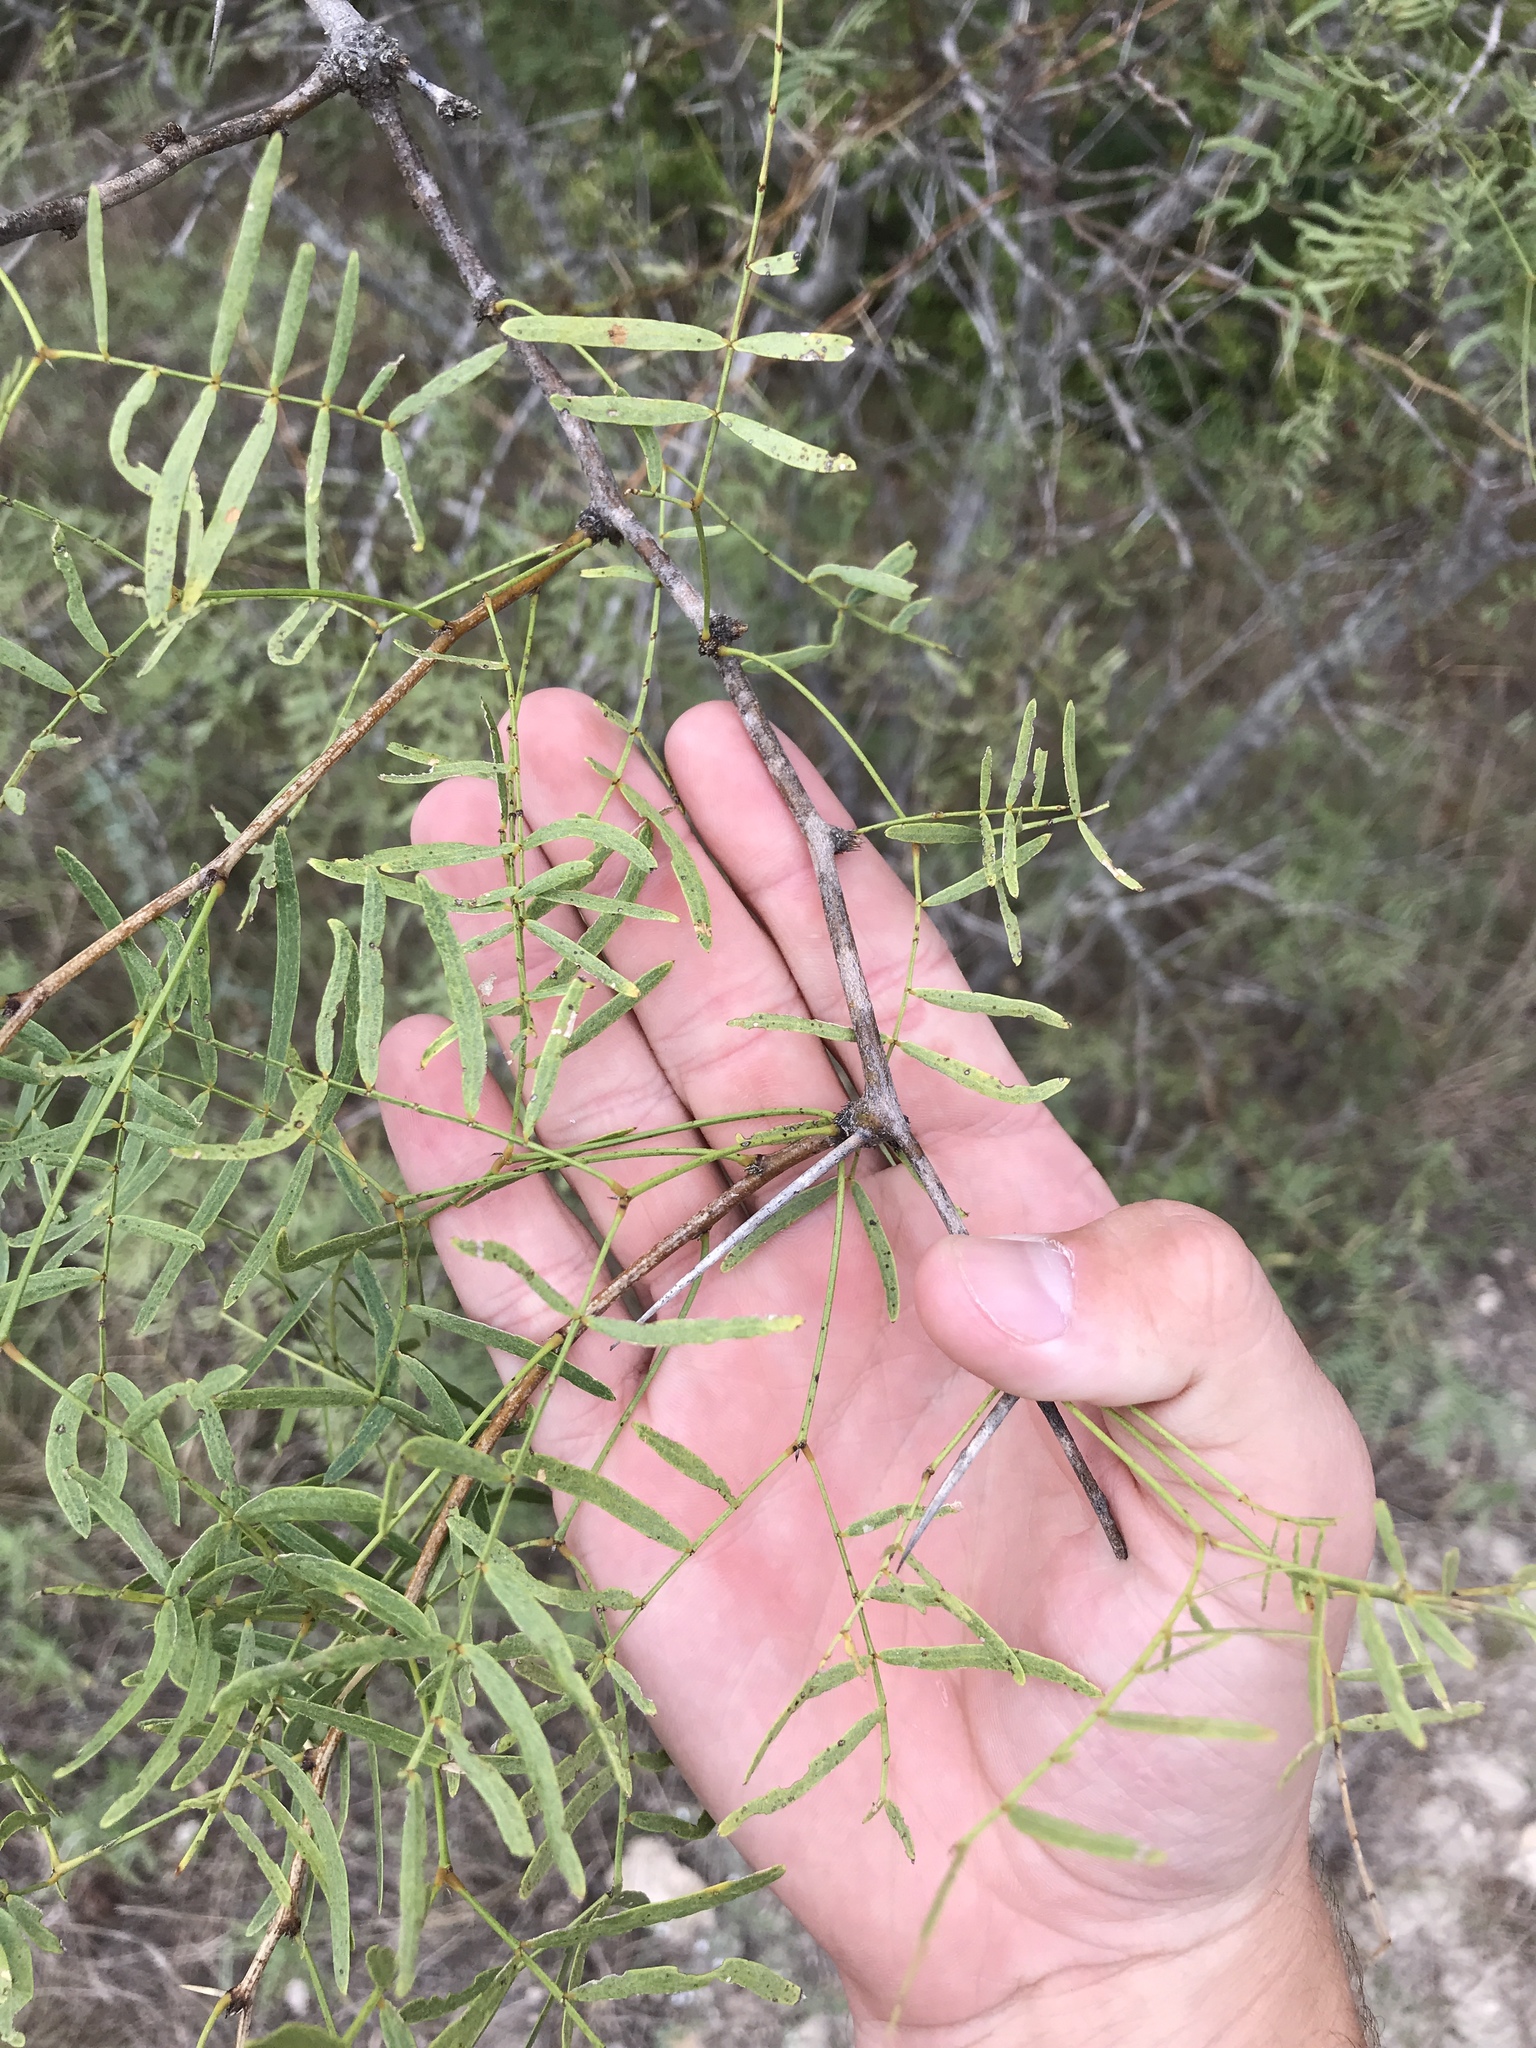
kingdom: Plantae
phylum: Tracheophyta
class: Magnoliopsida
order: Fabales
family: Fabaceae
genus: Prosopis
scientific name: Prosopis glandulosa
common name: Honey mesquite
